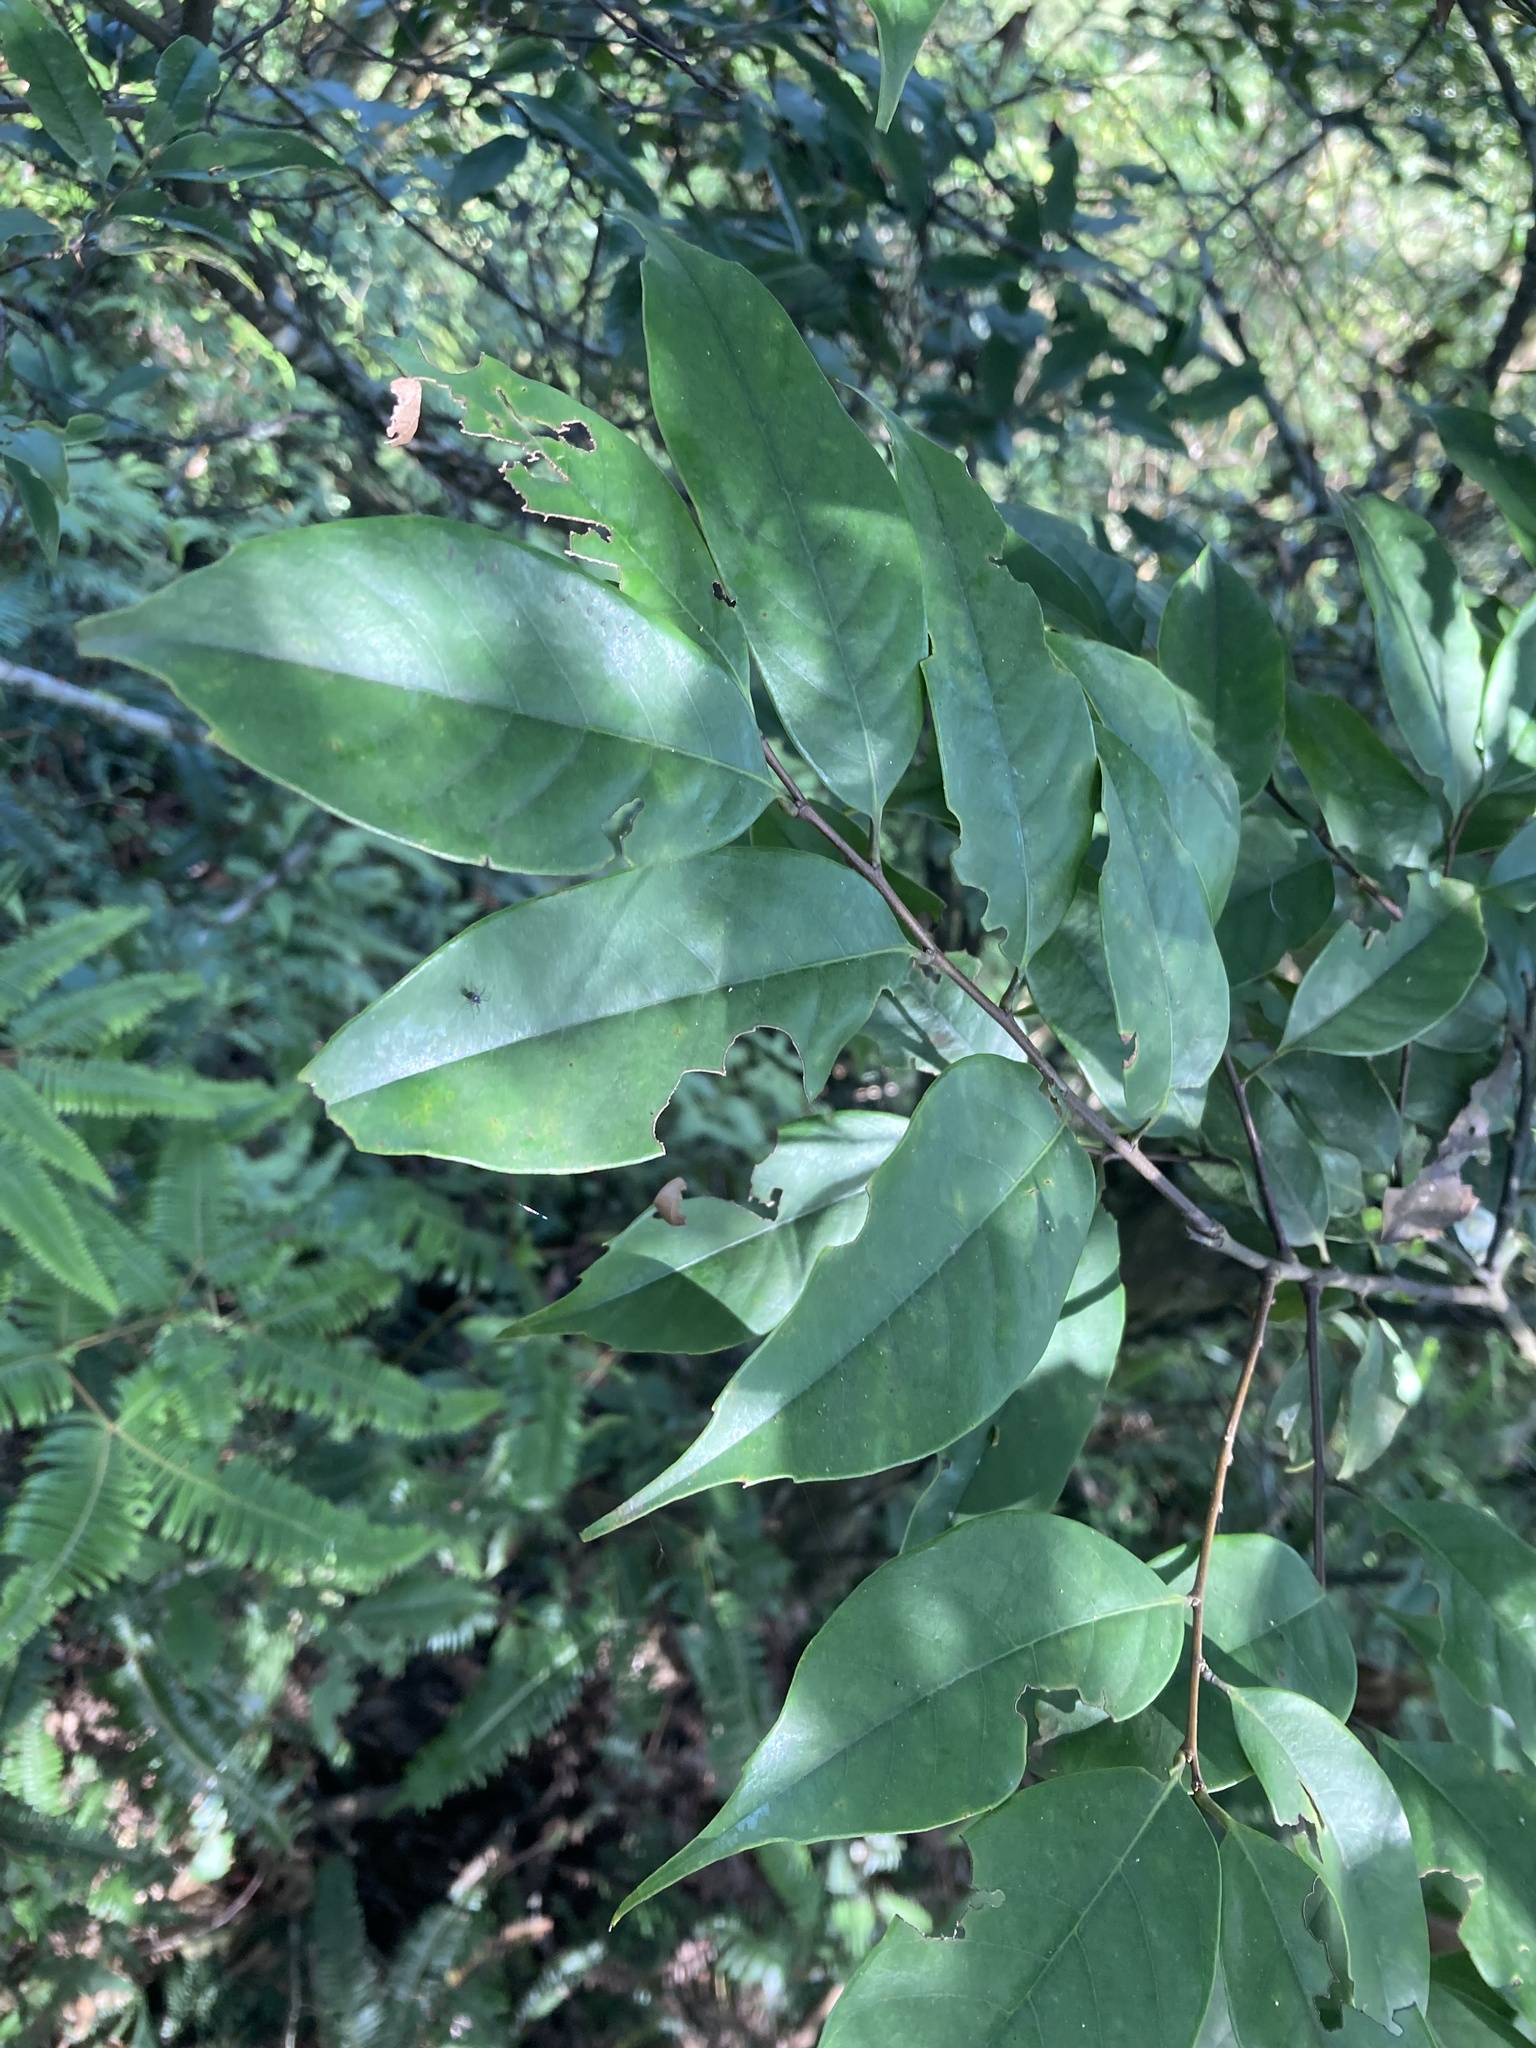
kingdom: Plantae
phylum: Tracheophyta
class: Magnoliopsida
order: Fagales
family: Fagaceae
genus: Castanopsis
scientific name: Castanopsis carlesii
